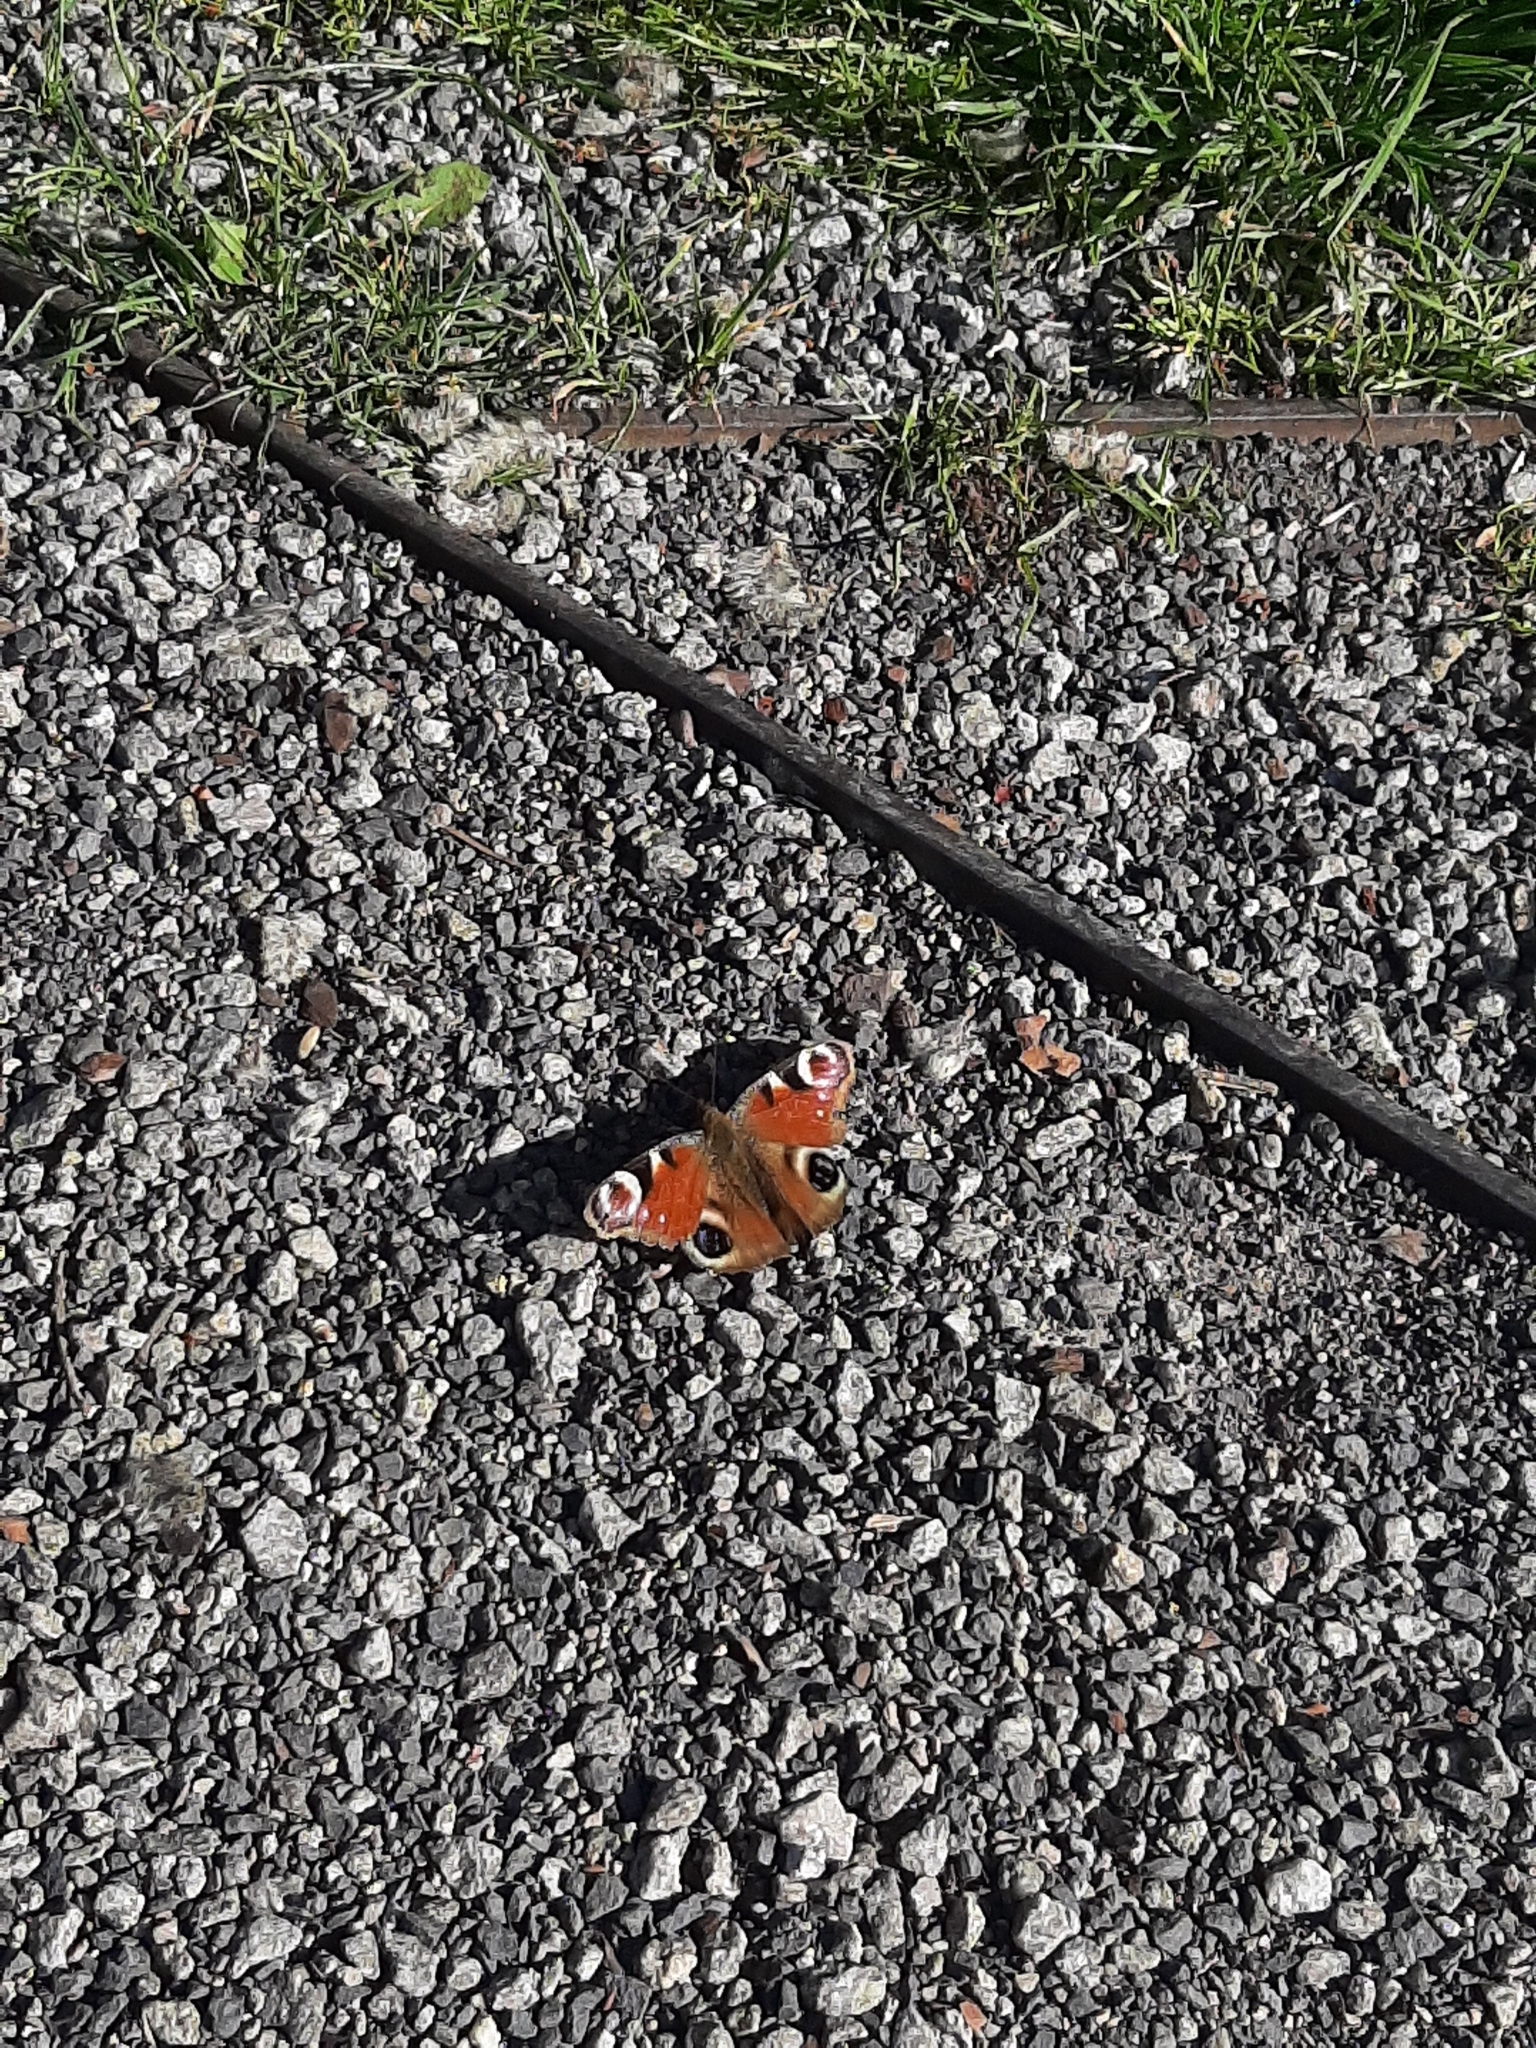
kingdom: Animalia
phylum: Arthropoda
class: Insecta
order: Lepidoptera
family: Nymphalidae
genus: Aglais
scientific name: Aglais io
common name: Peacock
